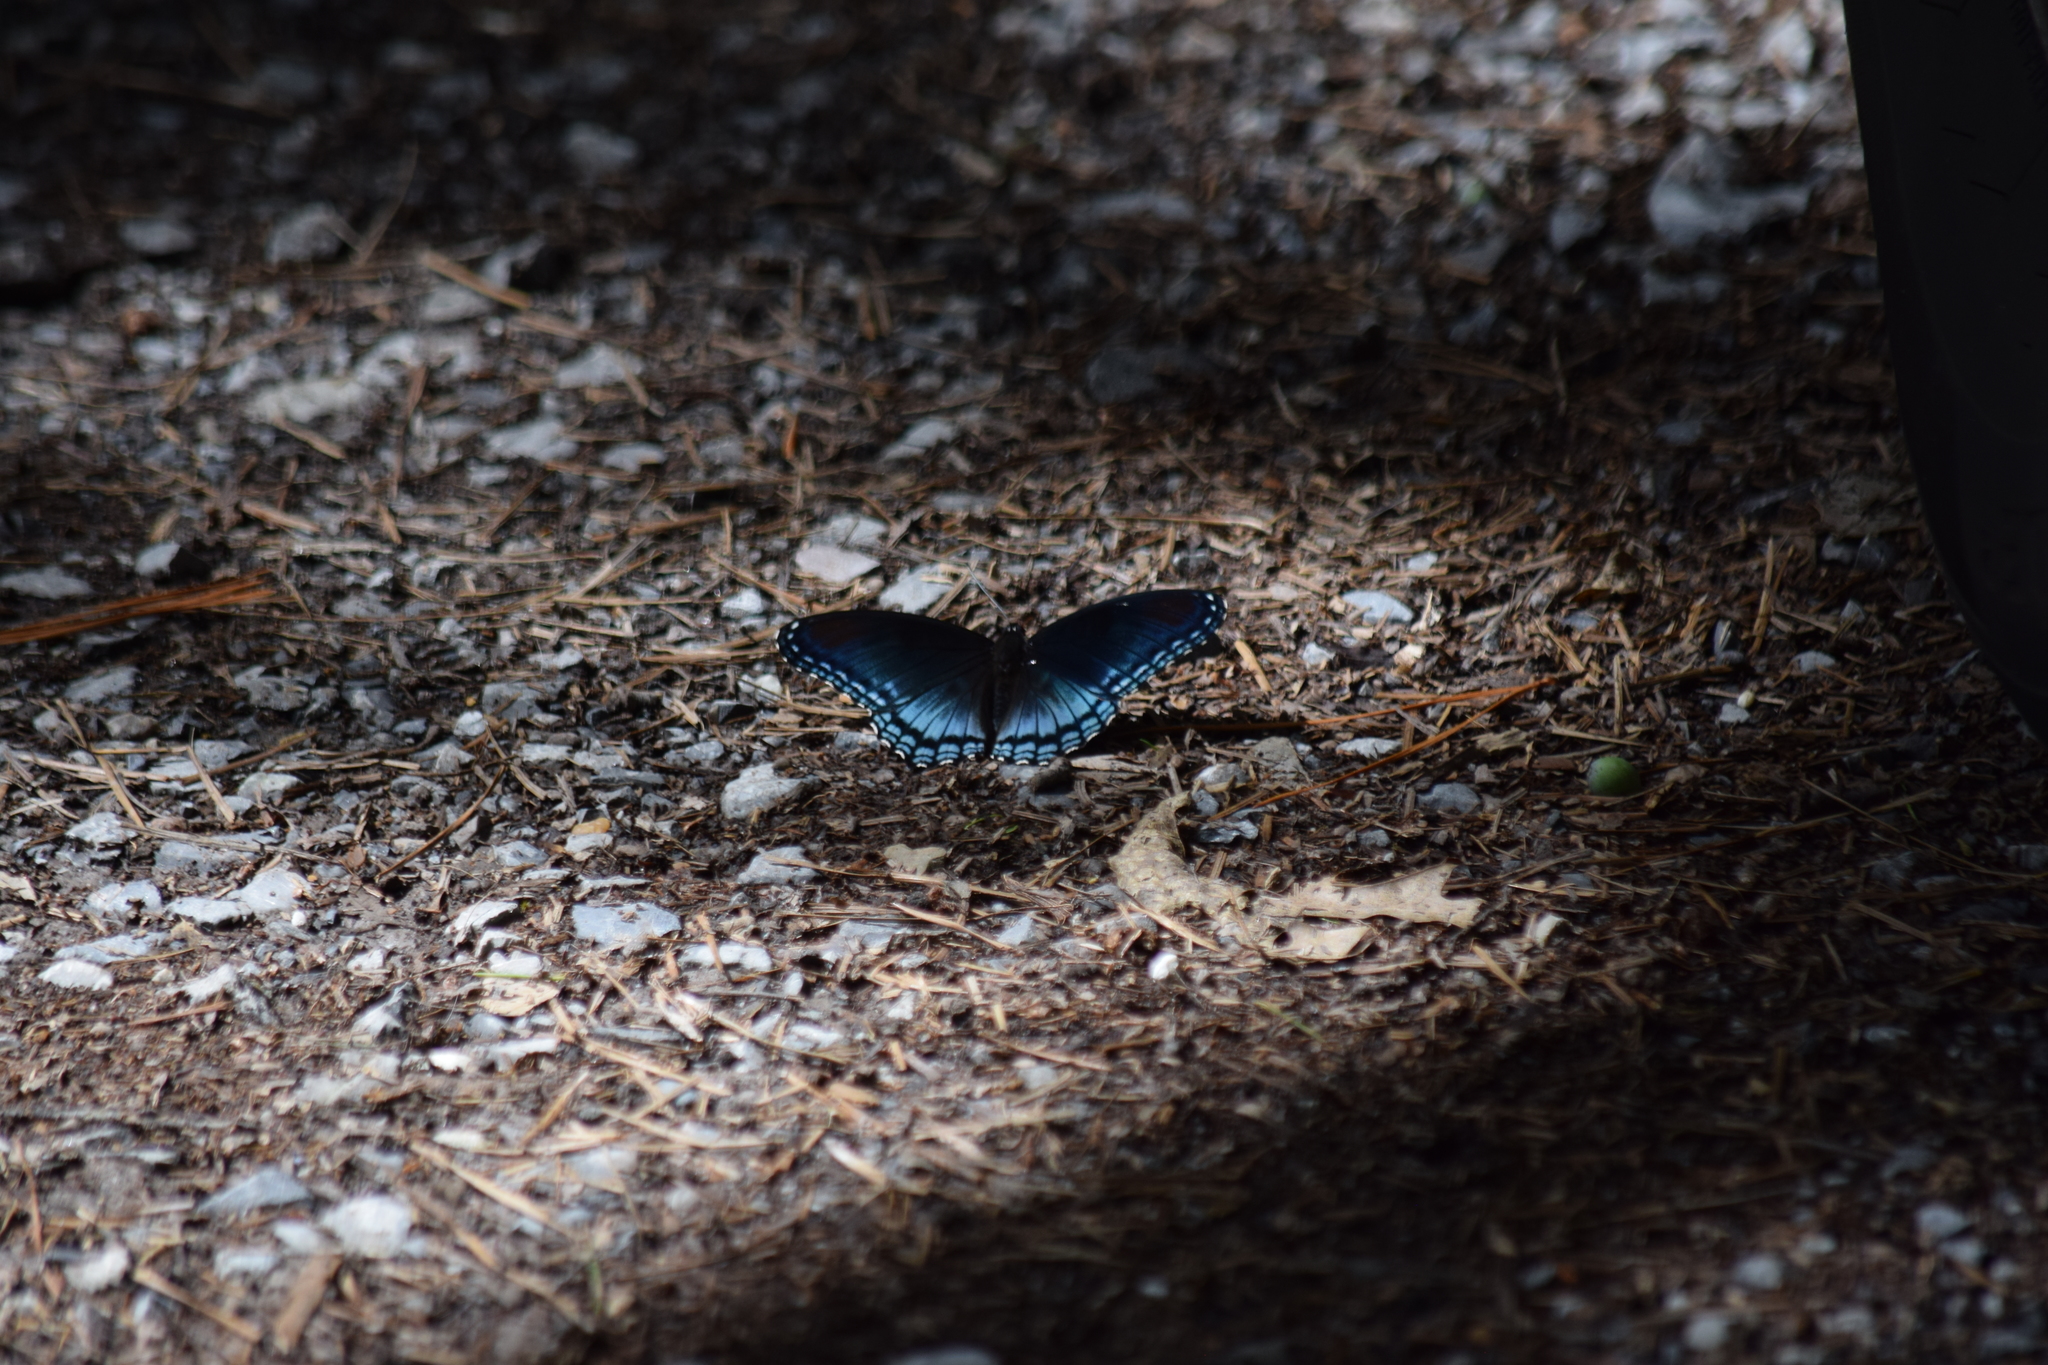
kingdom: Animalia
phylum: Arthropoda
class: Insecta
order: Lepidoptera
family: Nymphalidae
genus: Limenitis
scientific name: Limenitis astyanax
